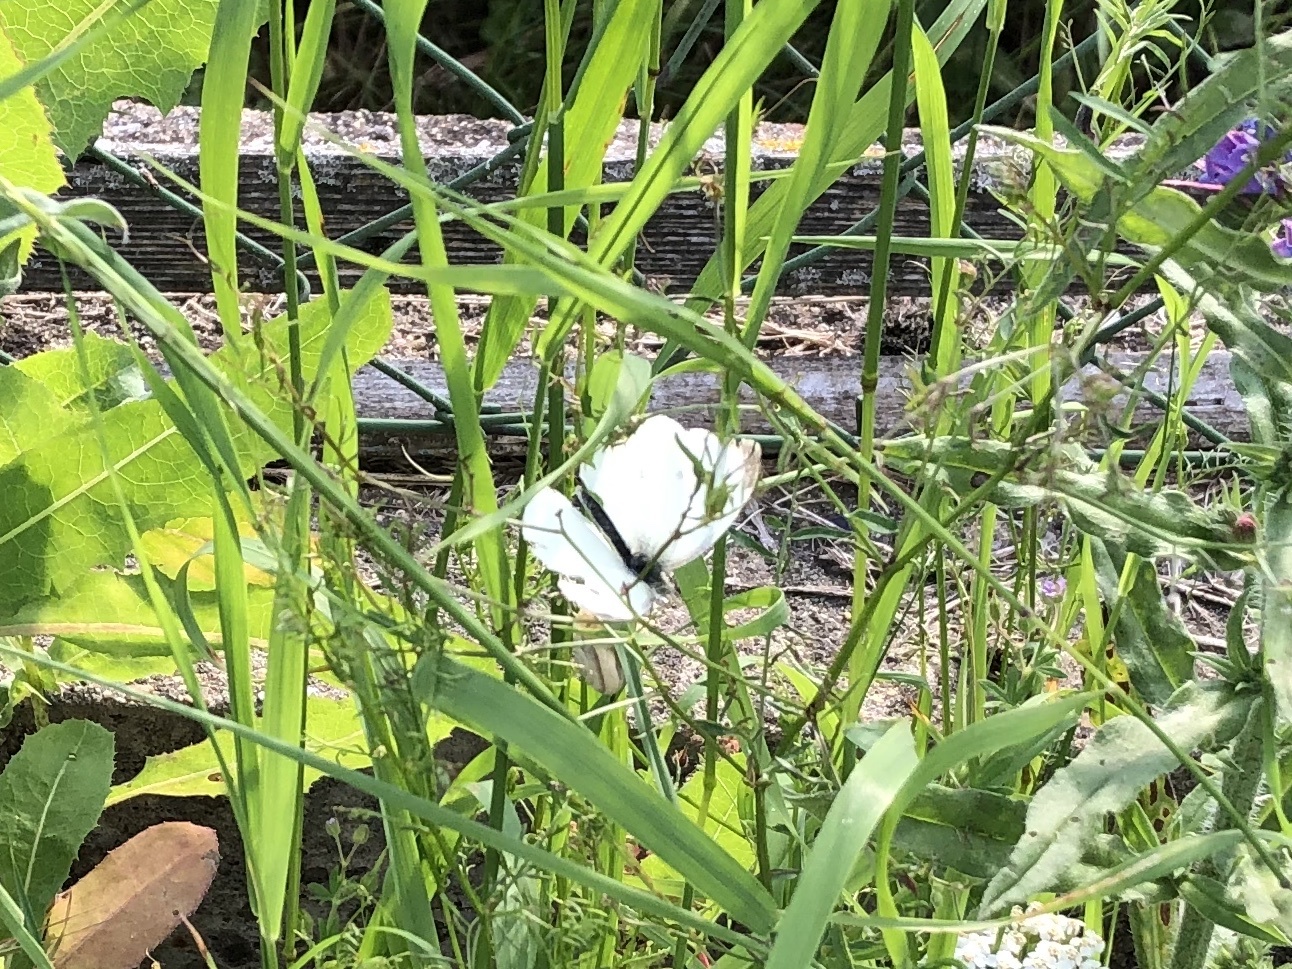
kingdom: Animalia
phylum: Arthropoda
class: Insecta
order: Lepidoptera
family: Pieridae
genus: Pieris
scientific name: Pieris rapae
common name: Small white
